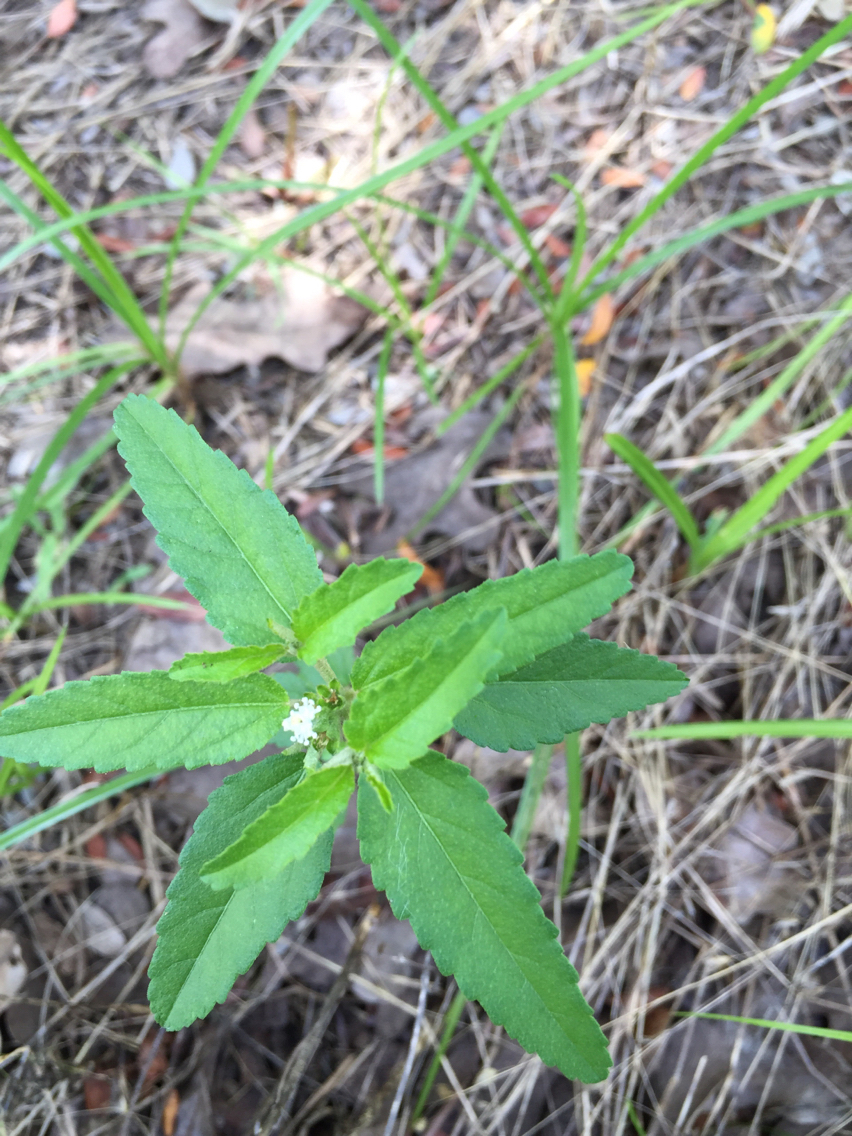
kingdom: Plantae
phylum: Tracheophyta
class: Magnoliopsida
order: Malpighiales
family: Euphorbiaceae
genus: Croton
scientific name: Croton glandulosus
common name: Tropic croton
